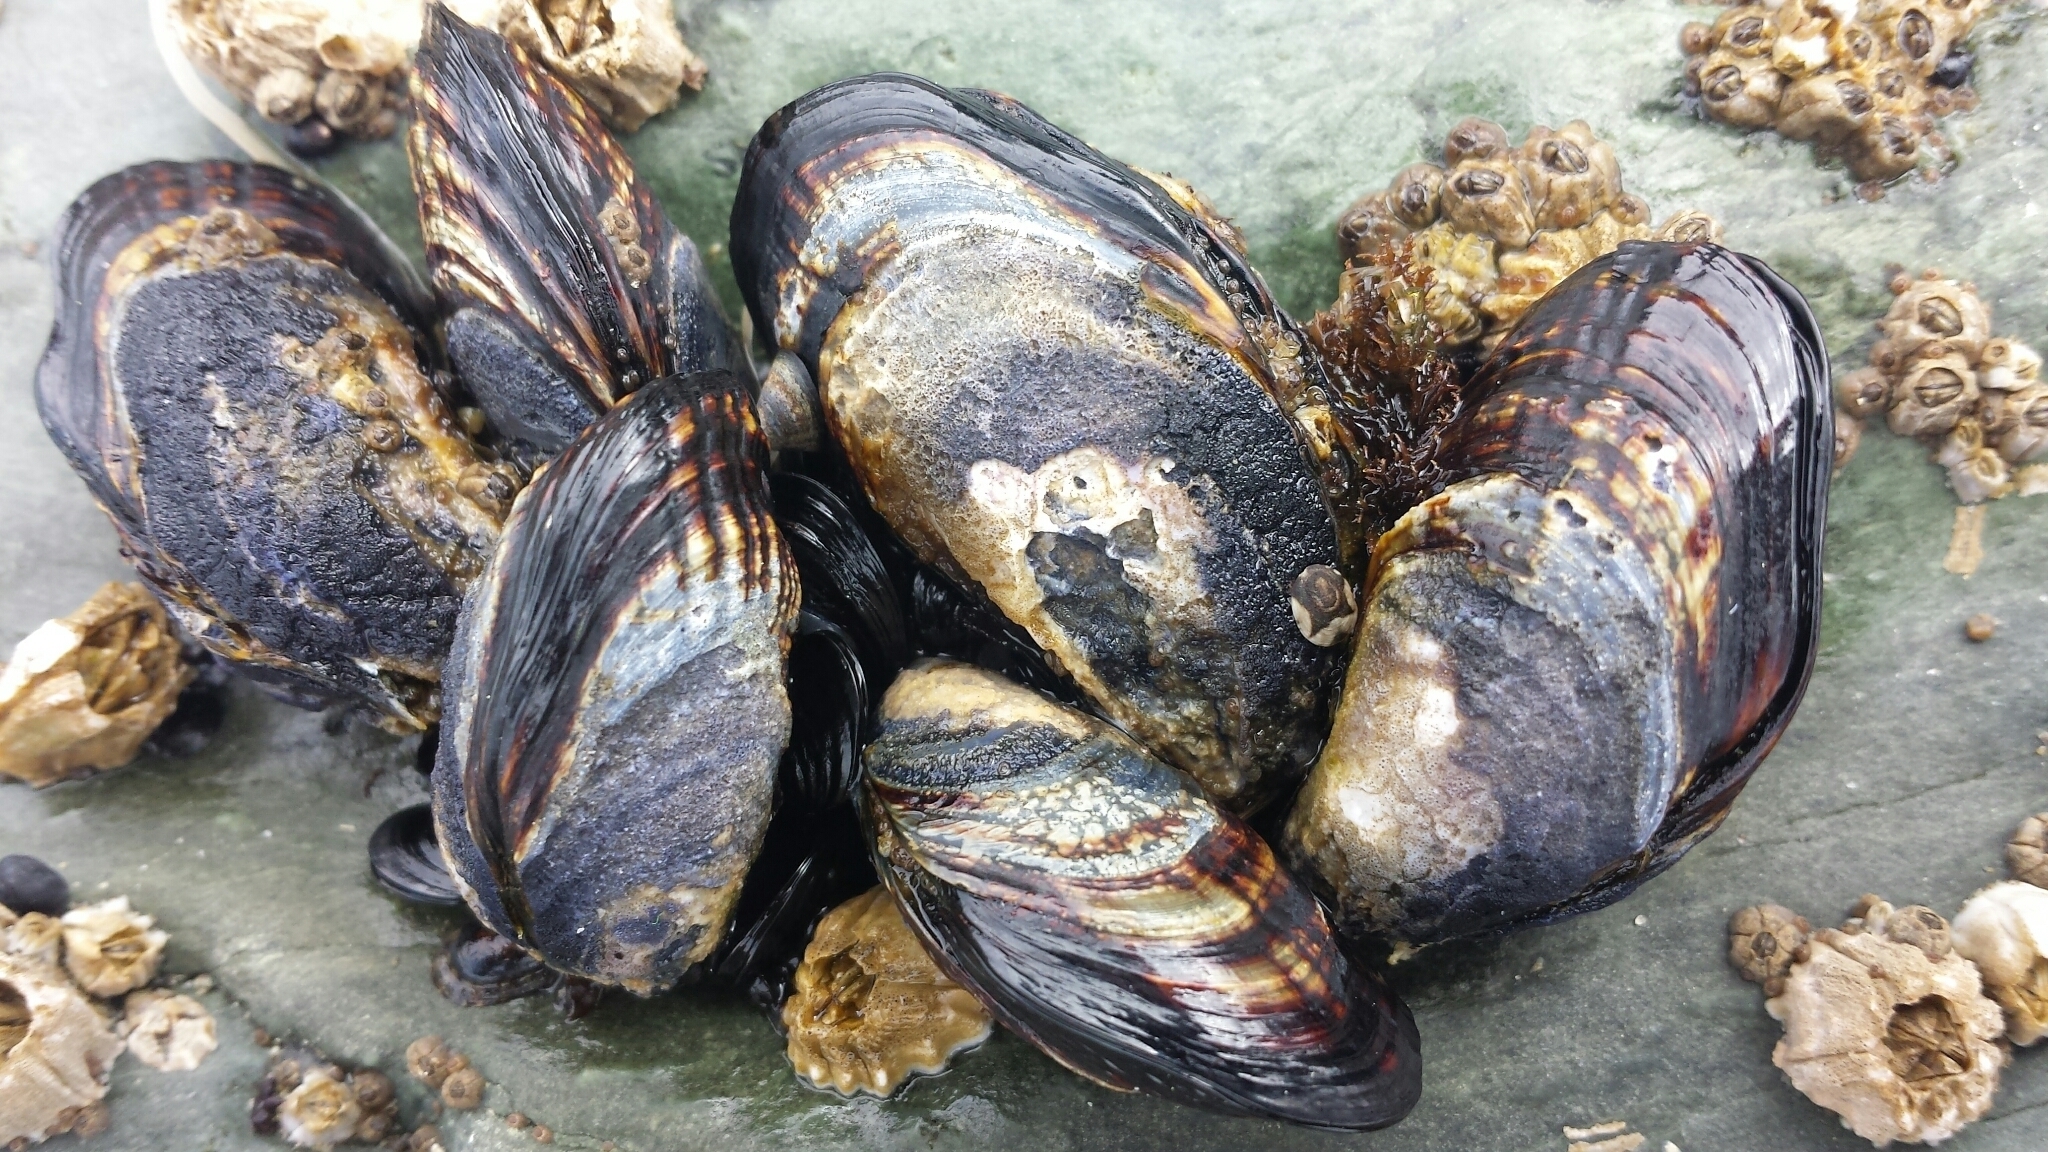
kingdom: Animalia
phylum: Mollusca
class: Bivalvia
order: Mytilida
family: Mytilidae
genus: Mytilus
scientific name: Mytilus californianus
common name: California mussel
